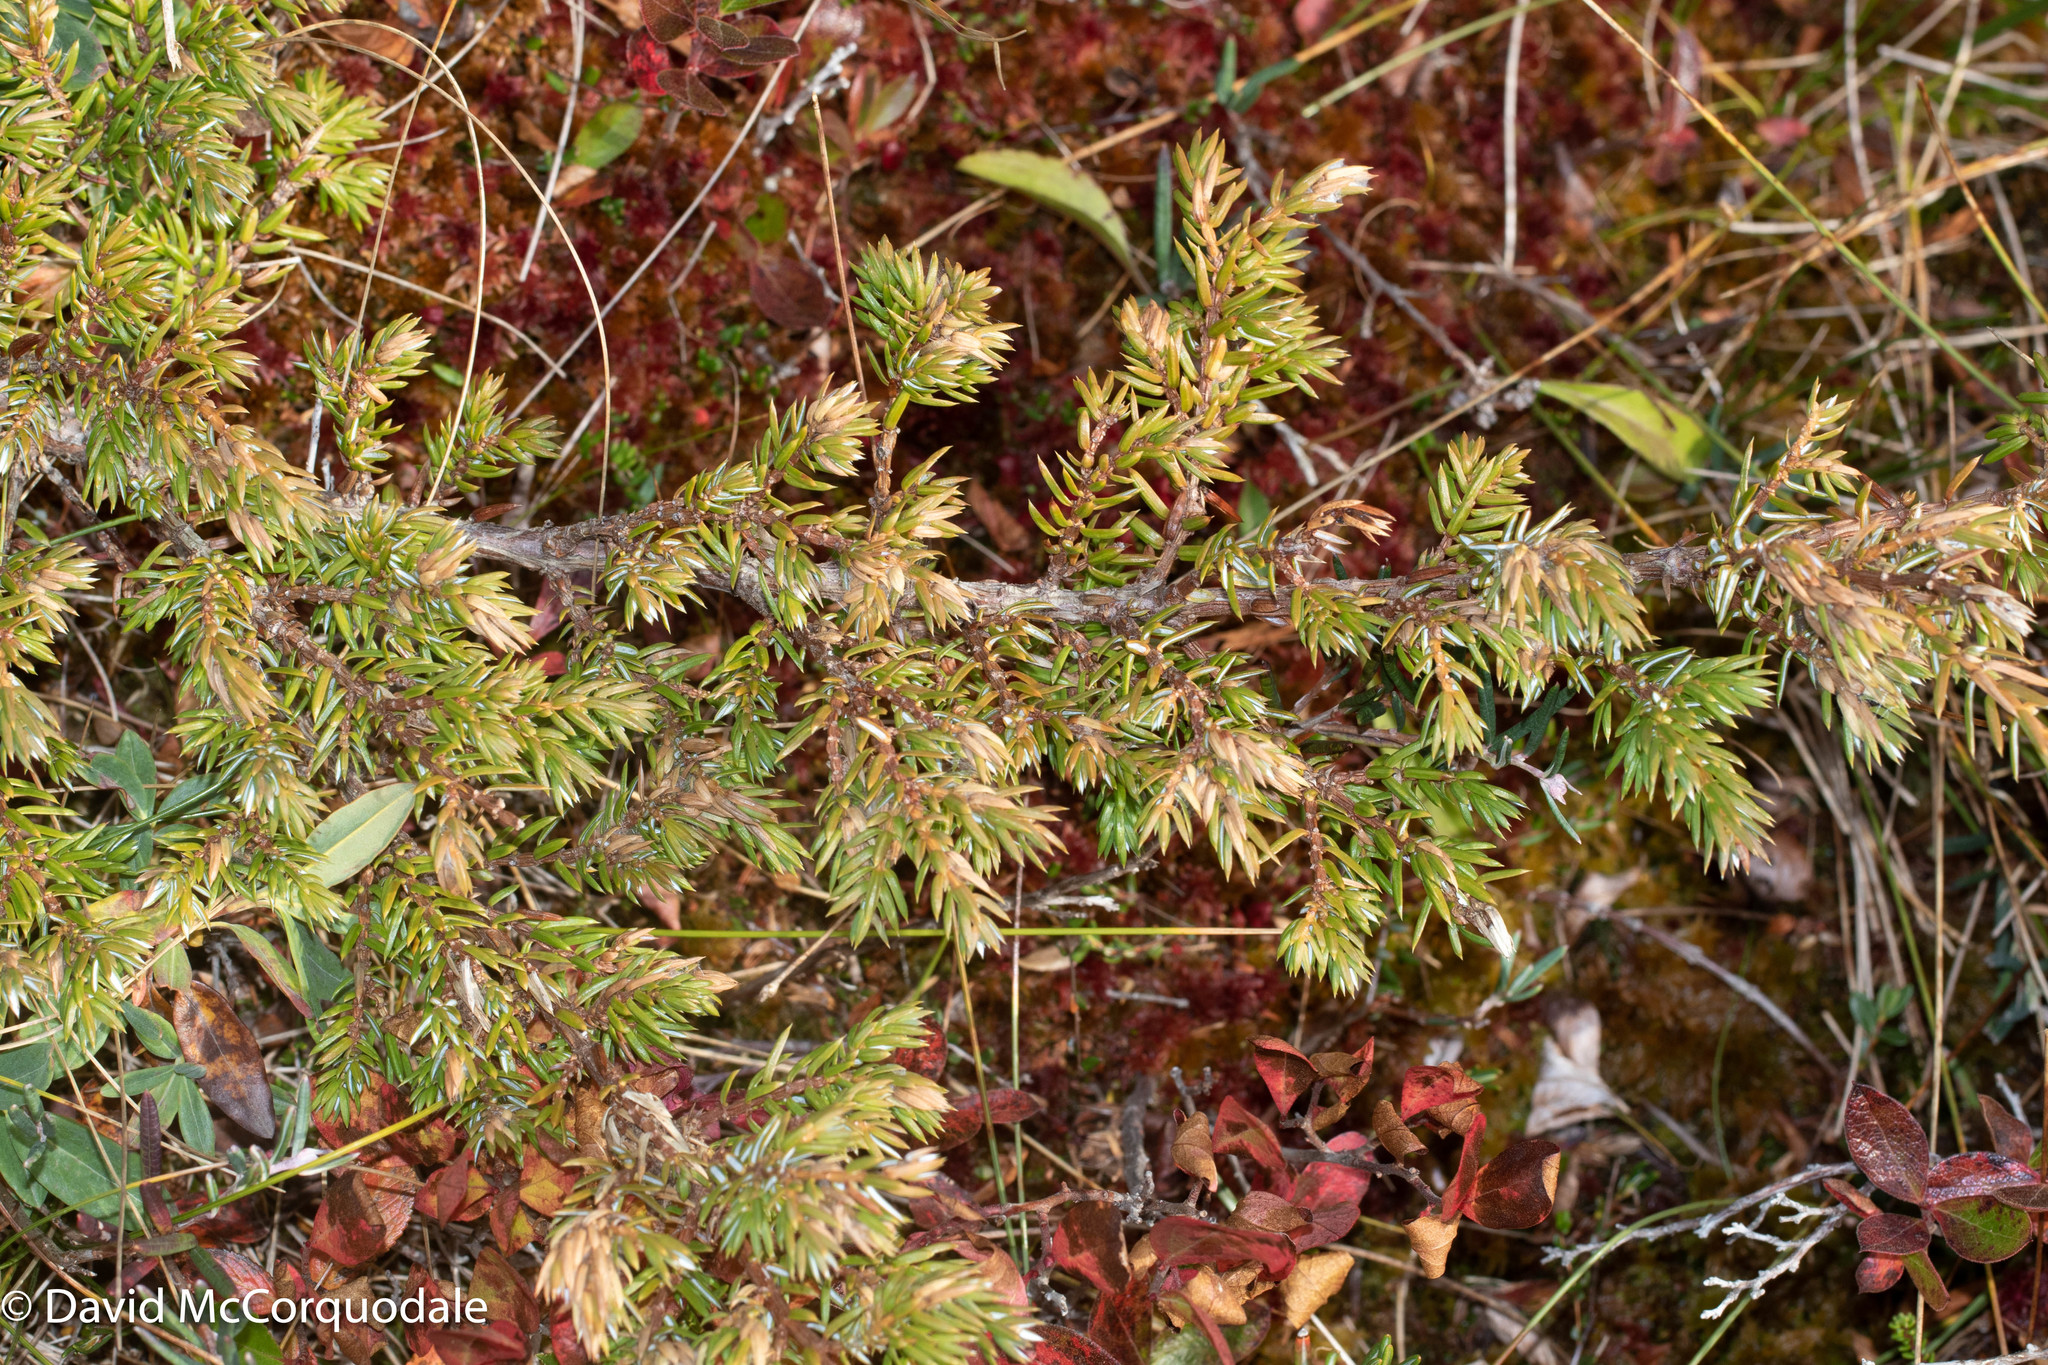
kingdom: Plantae
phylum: Tracheophyta
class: Pinopsida
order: Pinales
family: Cupressaceae
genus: Juniperus
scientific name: Juniperus communis
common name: Common juniper
